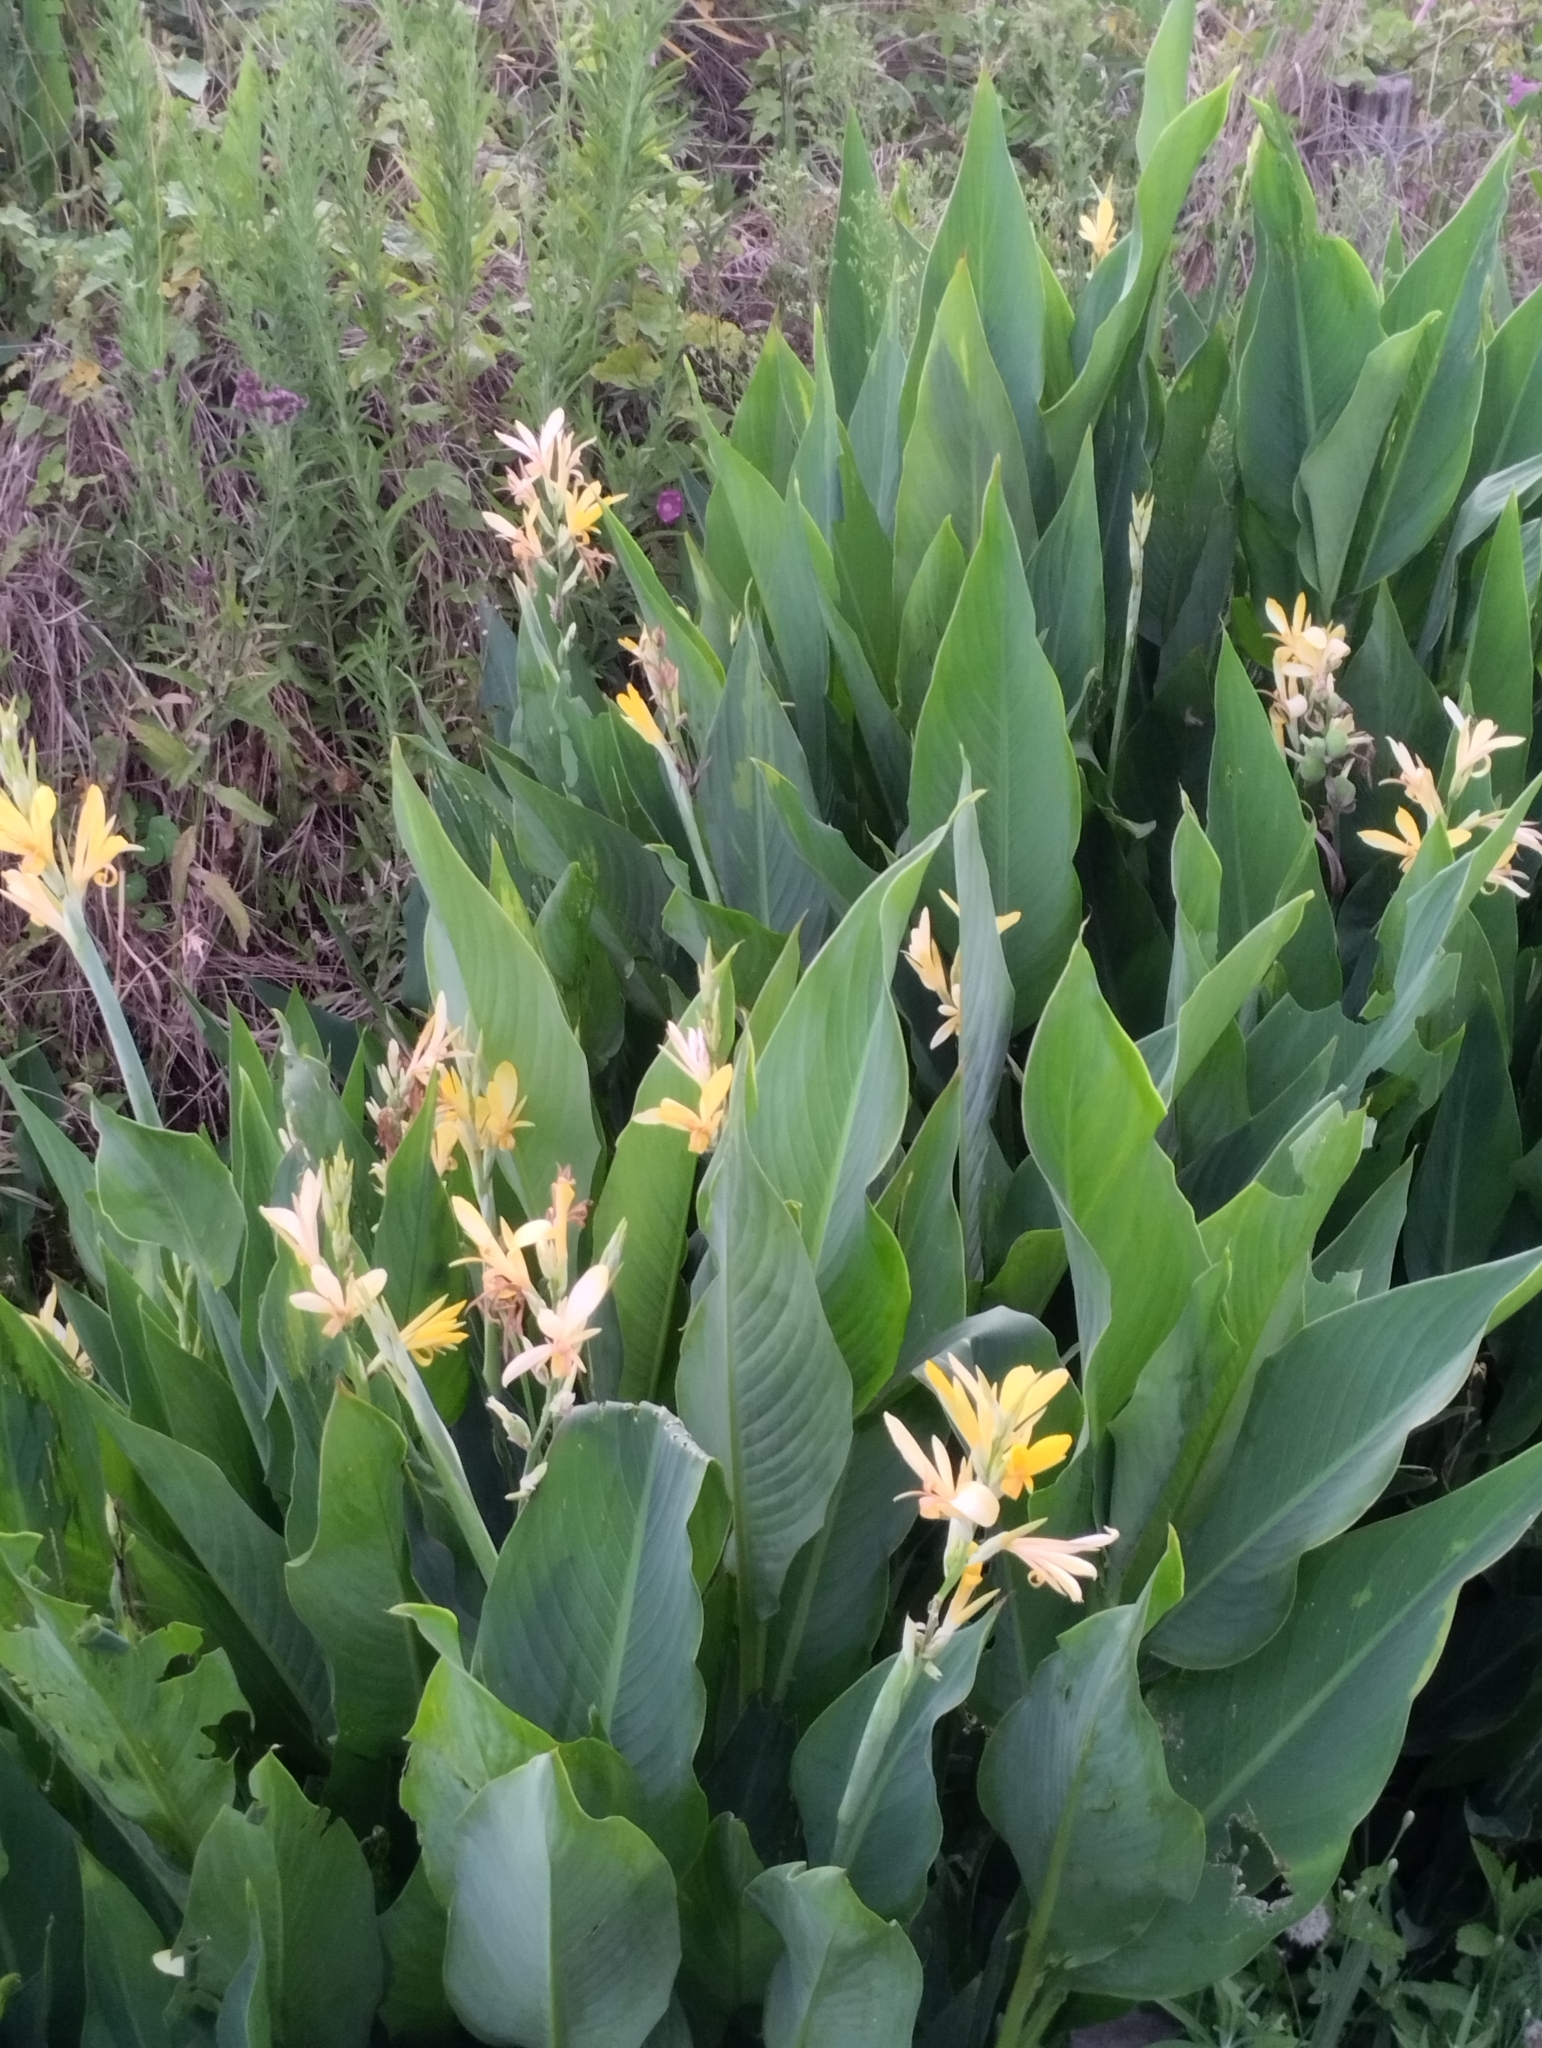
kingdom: Plantae
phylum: Tracheophyta
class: Liliopsida
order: Zingiberales
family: Cannaceae
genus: Canna
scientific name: Canna glauca
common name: Louisiana canna
